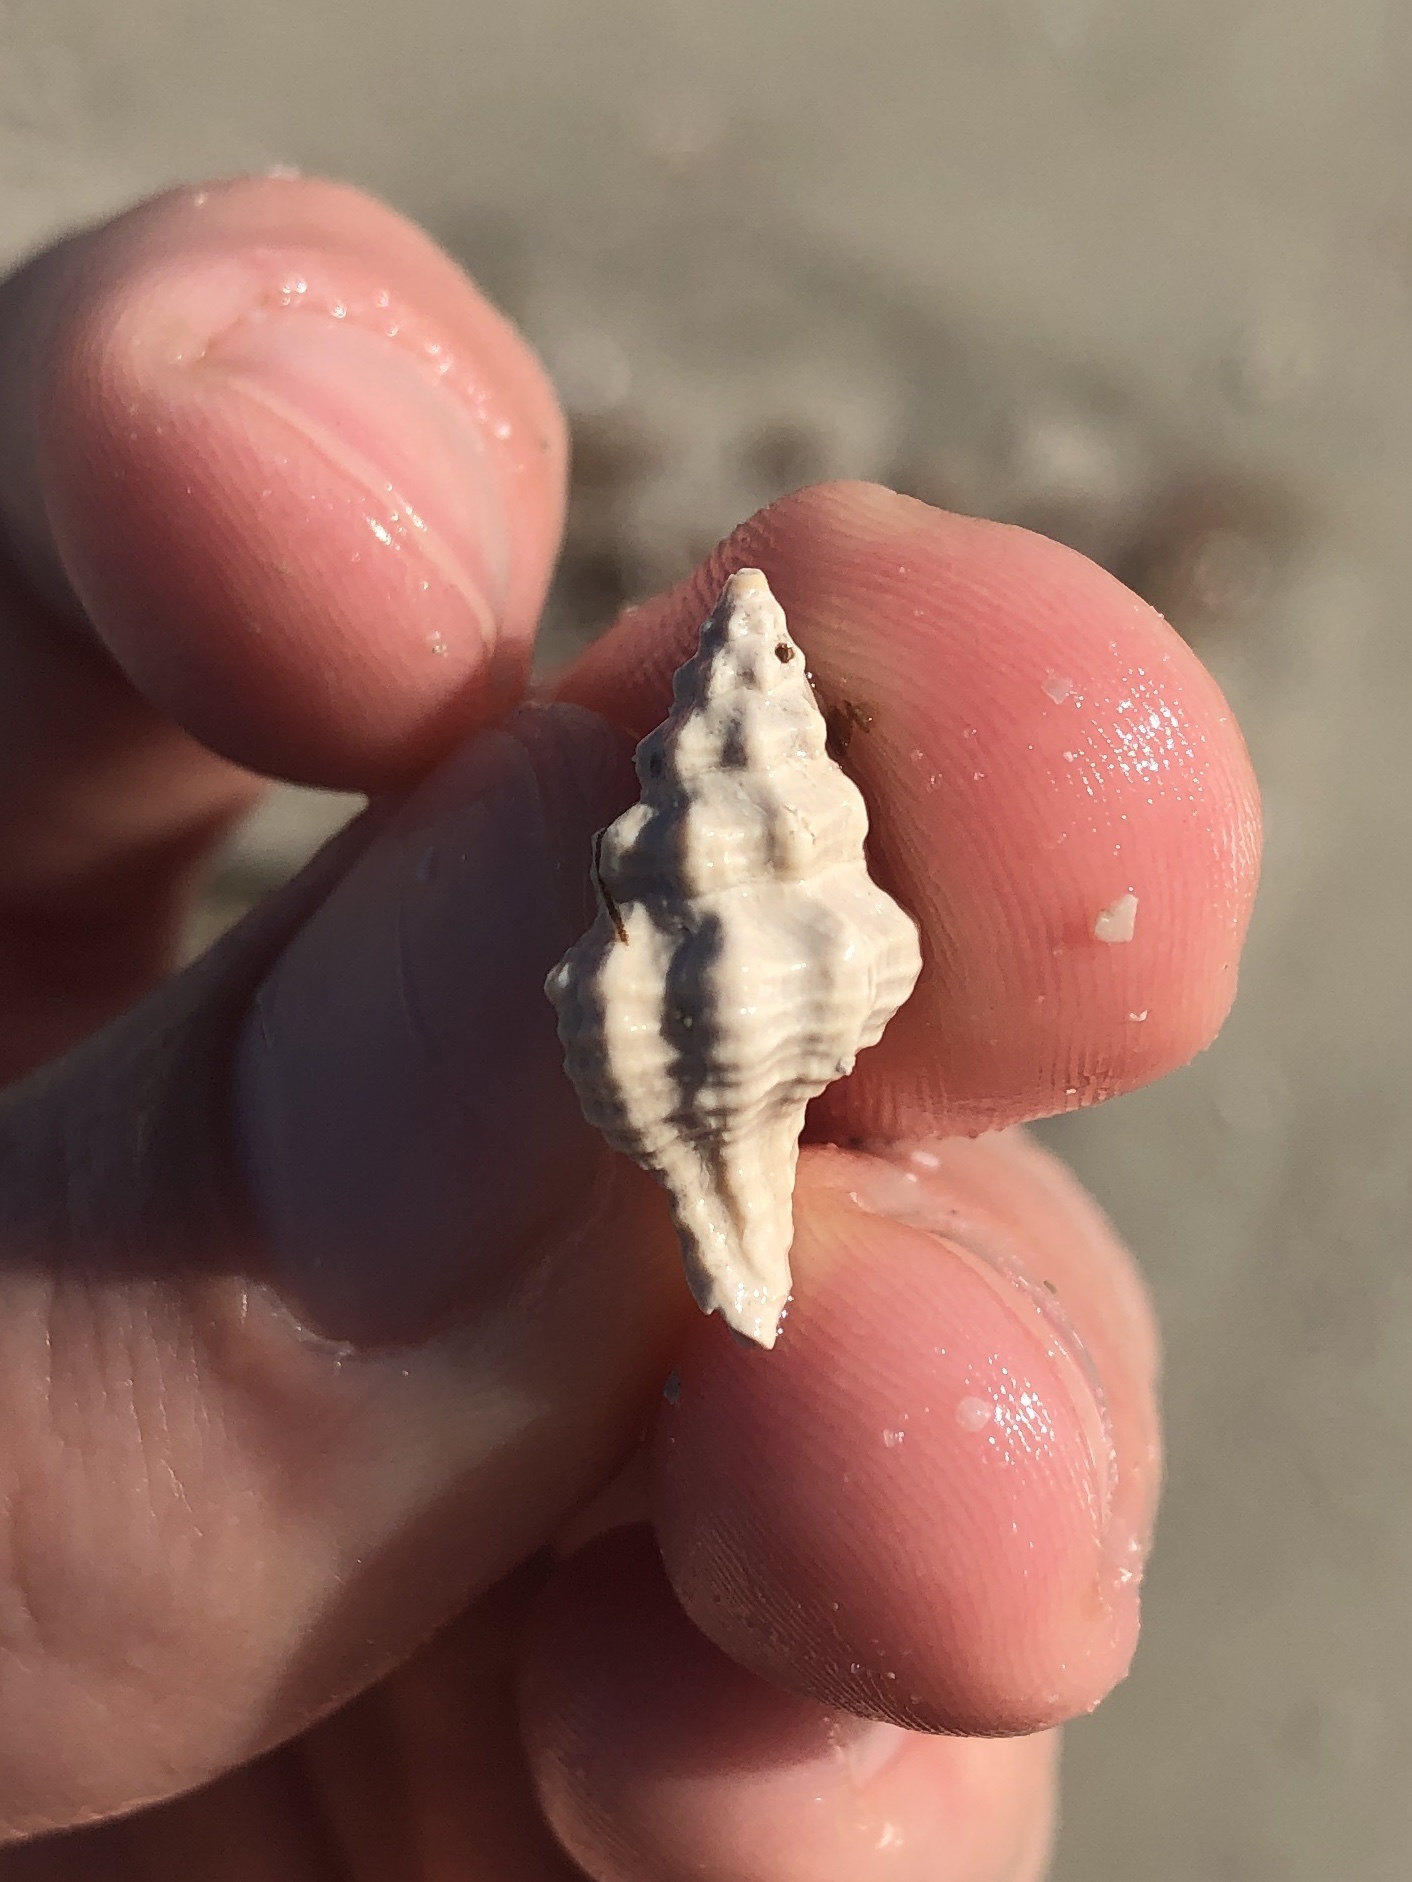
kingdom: Animalia
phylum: Mollusca
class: Gastropoda
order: Neogastropoda
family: Muricidae
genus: Calotrophon
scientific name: Calotrophon ostrearum
